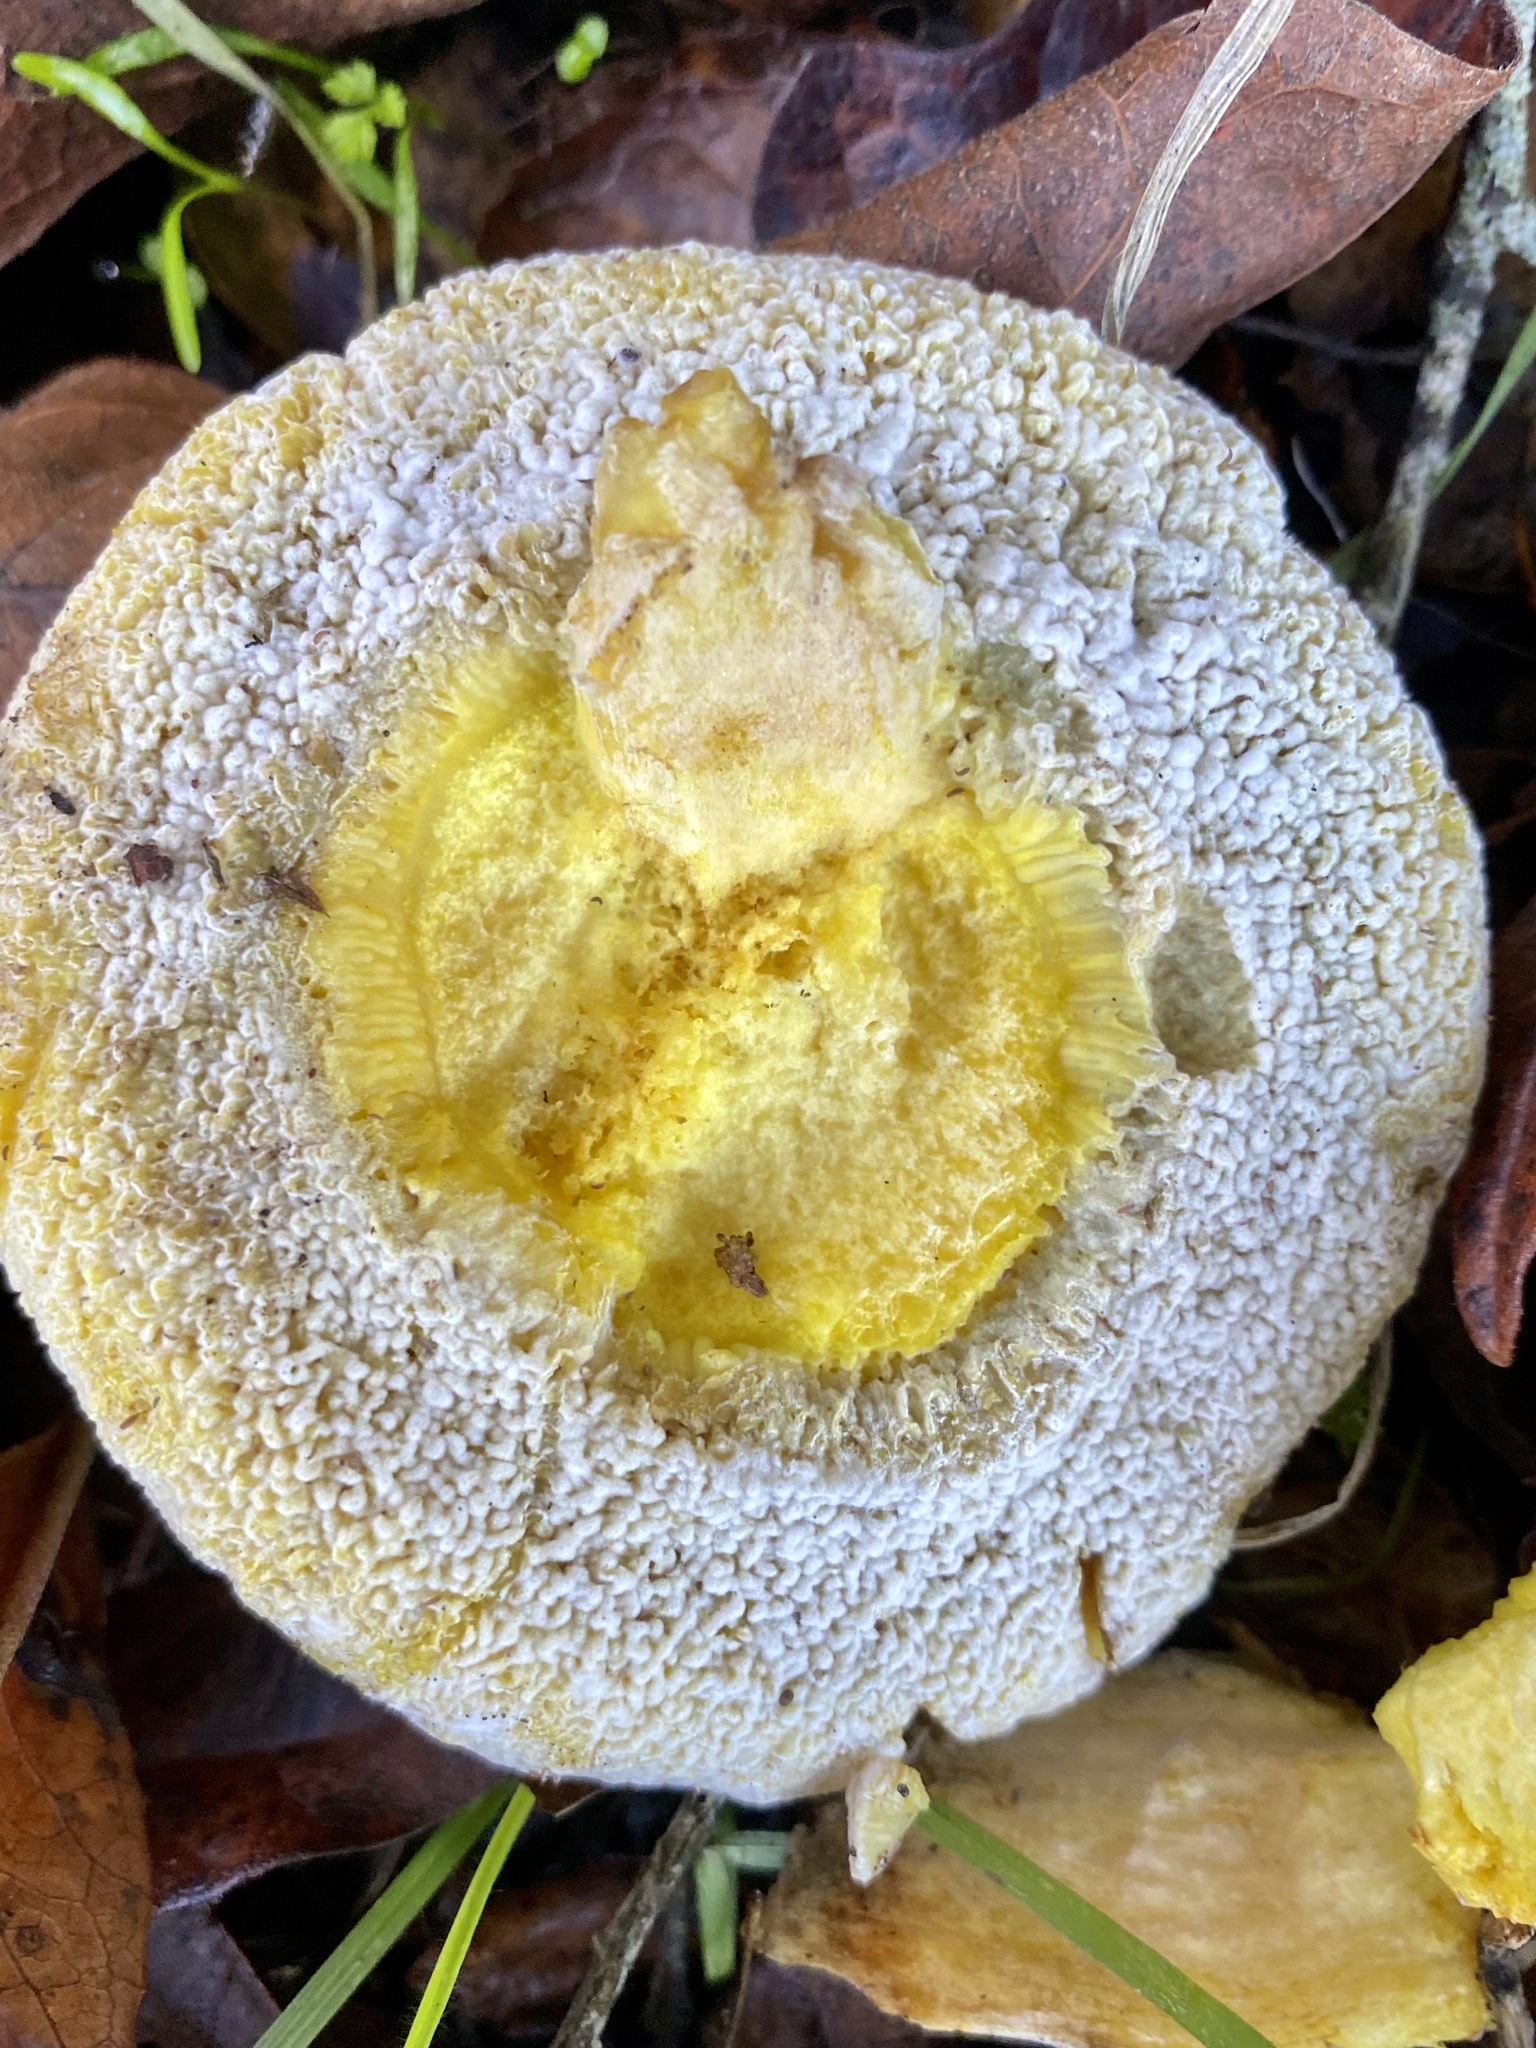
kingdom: Fungi
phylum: Basidiomycota
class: Agaricomycetes
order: Boletales
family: Boletaceae
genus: Xerocomellus
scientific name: Xerocomellus dryophilus
